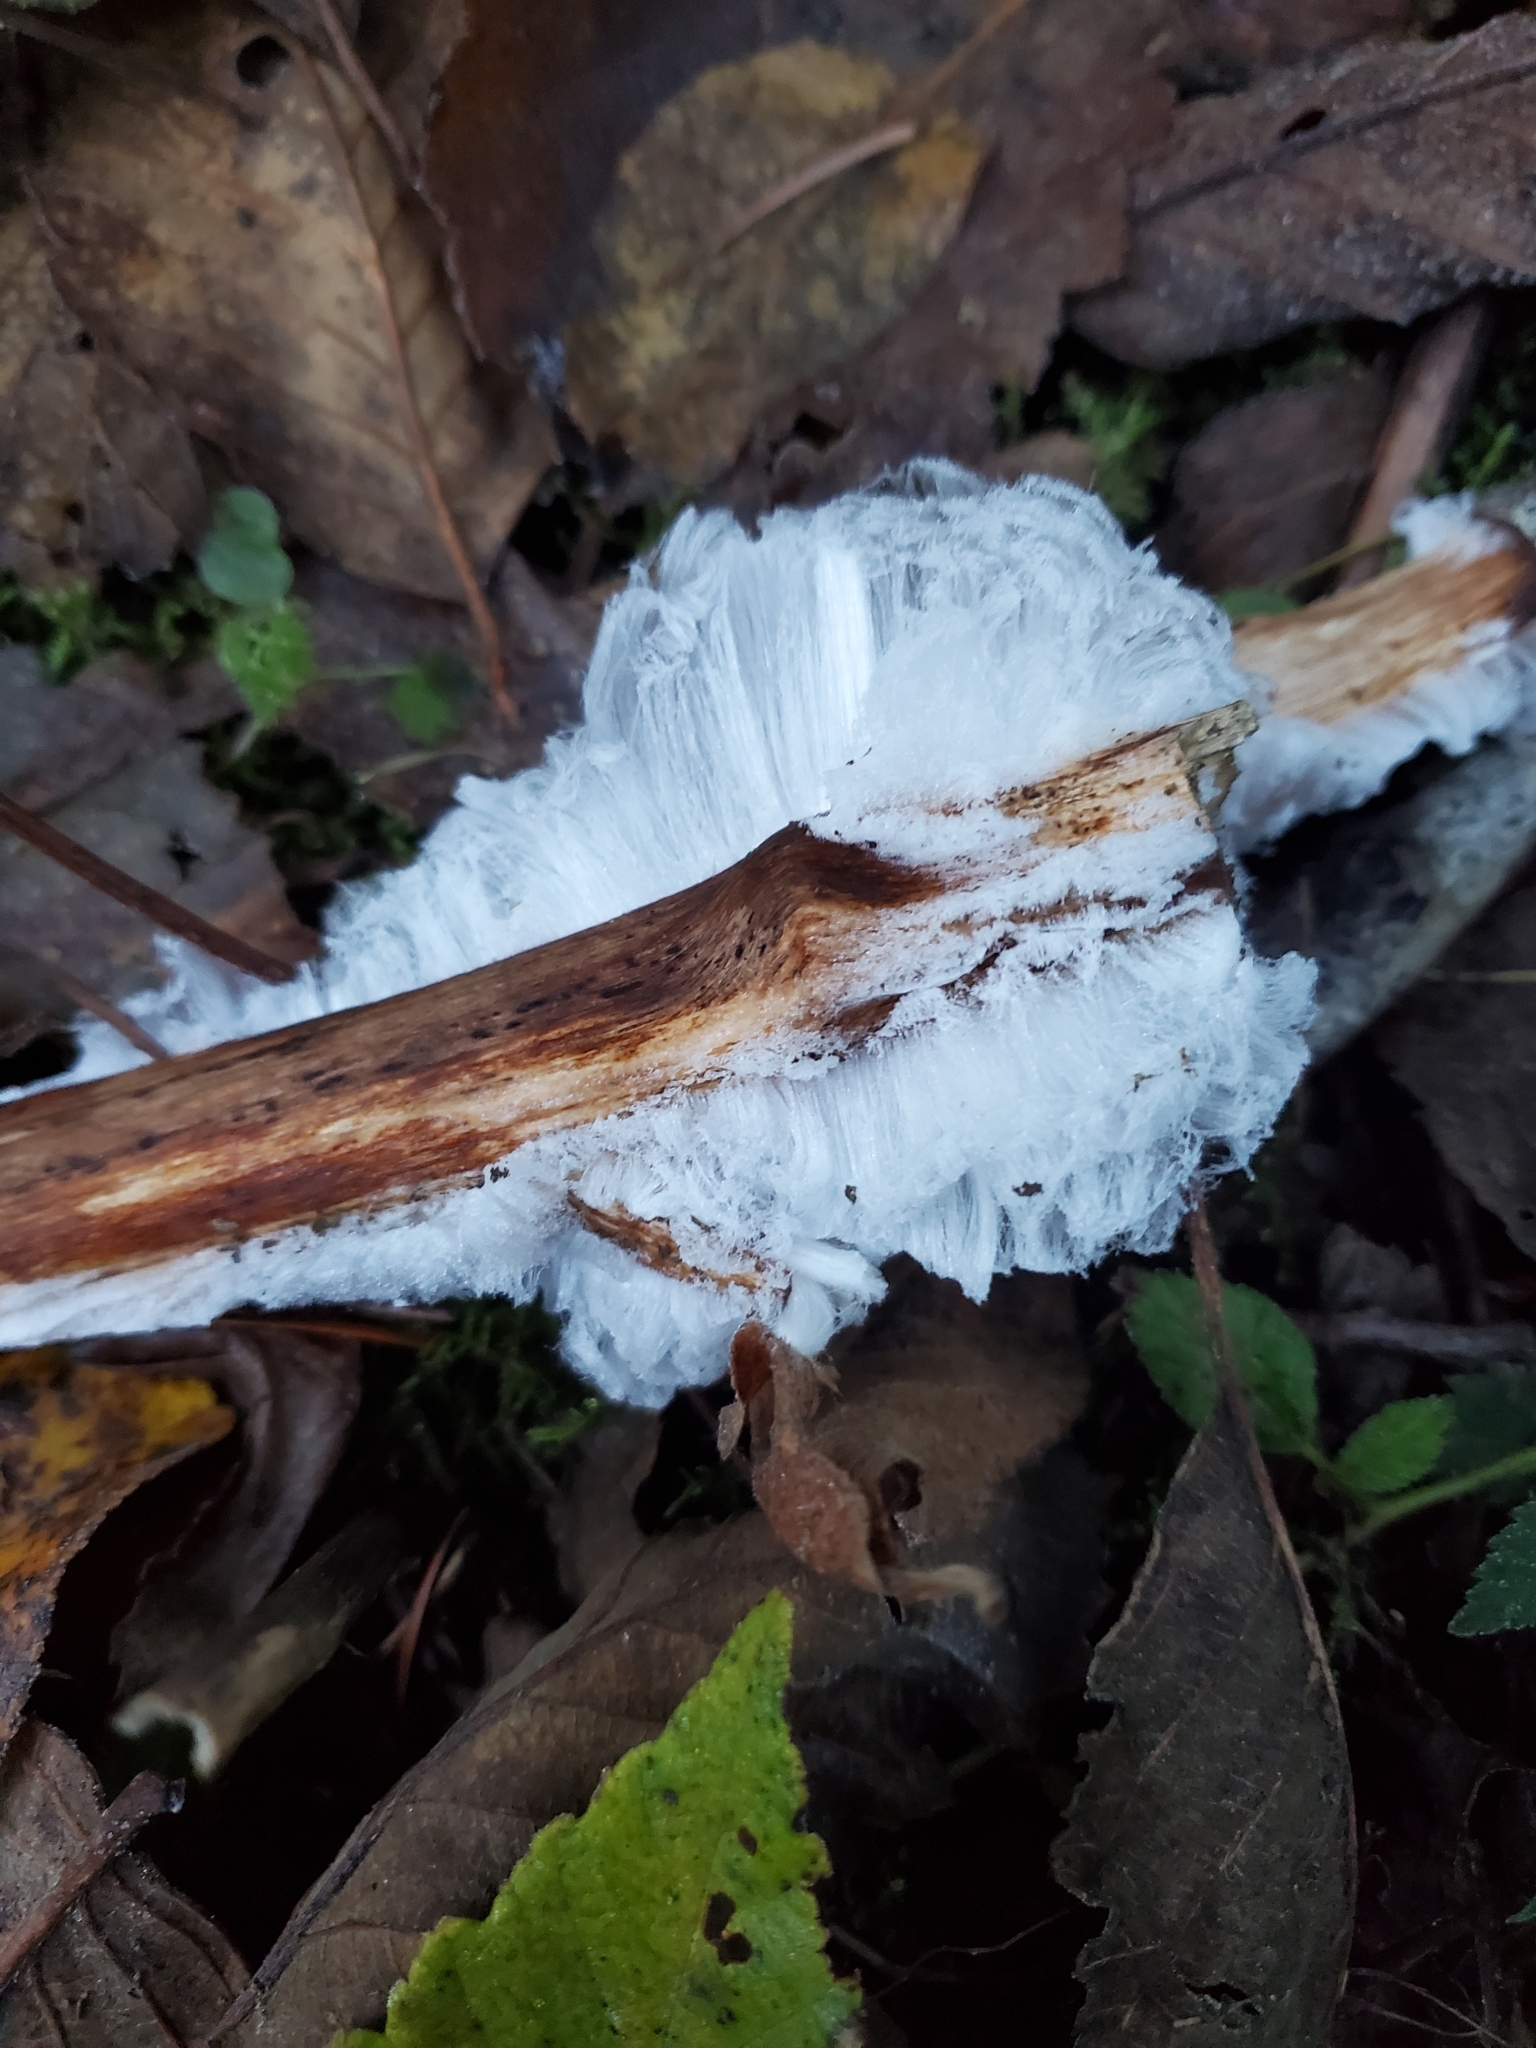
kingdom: Fungi
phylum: Basidiomycota
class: Agaricomycetes
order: Auriculariales
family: Auriculariaceae
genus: Exidiopsis
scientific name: Exidiopsis effusa
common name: Hair ice crust
